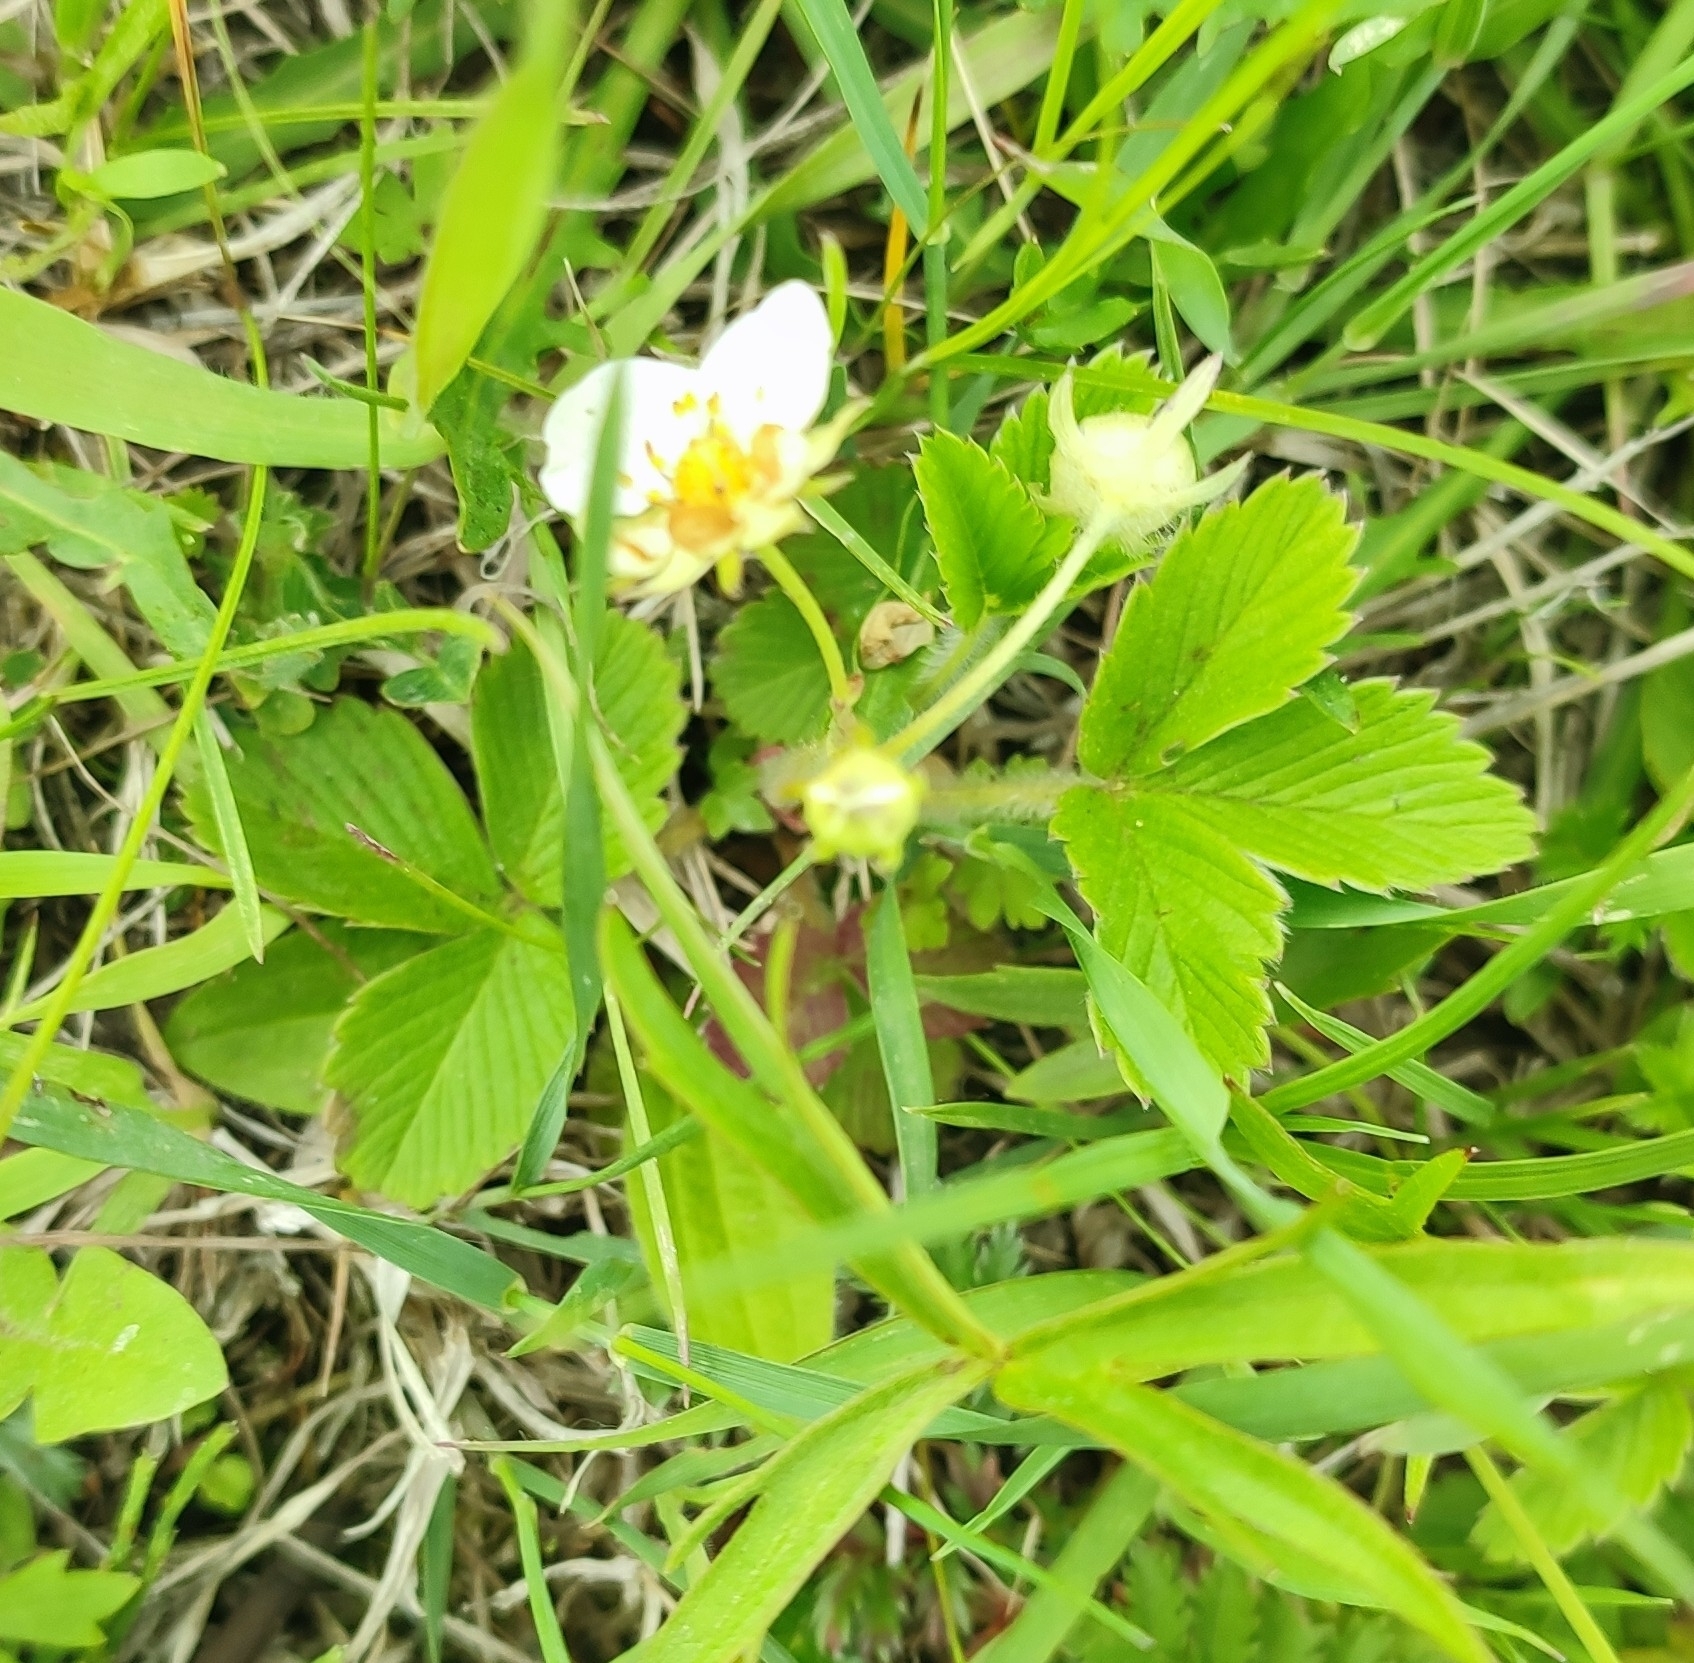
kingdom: Plantae
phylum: Tracheophyta
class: Magnoliopsida
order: Rosales
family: Rosaceae
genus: Fragaria
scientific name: Fragaria viridis
